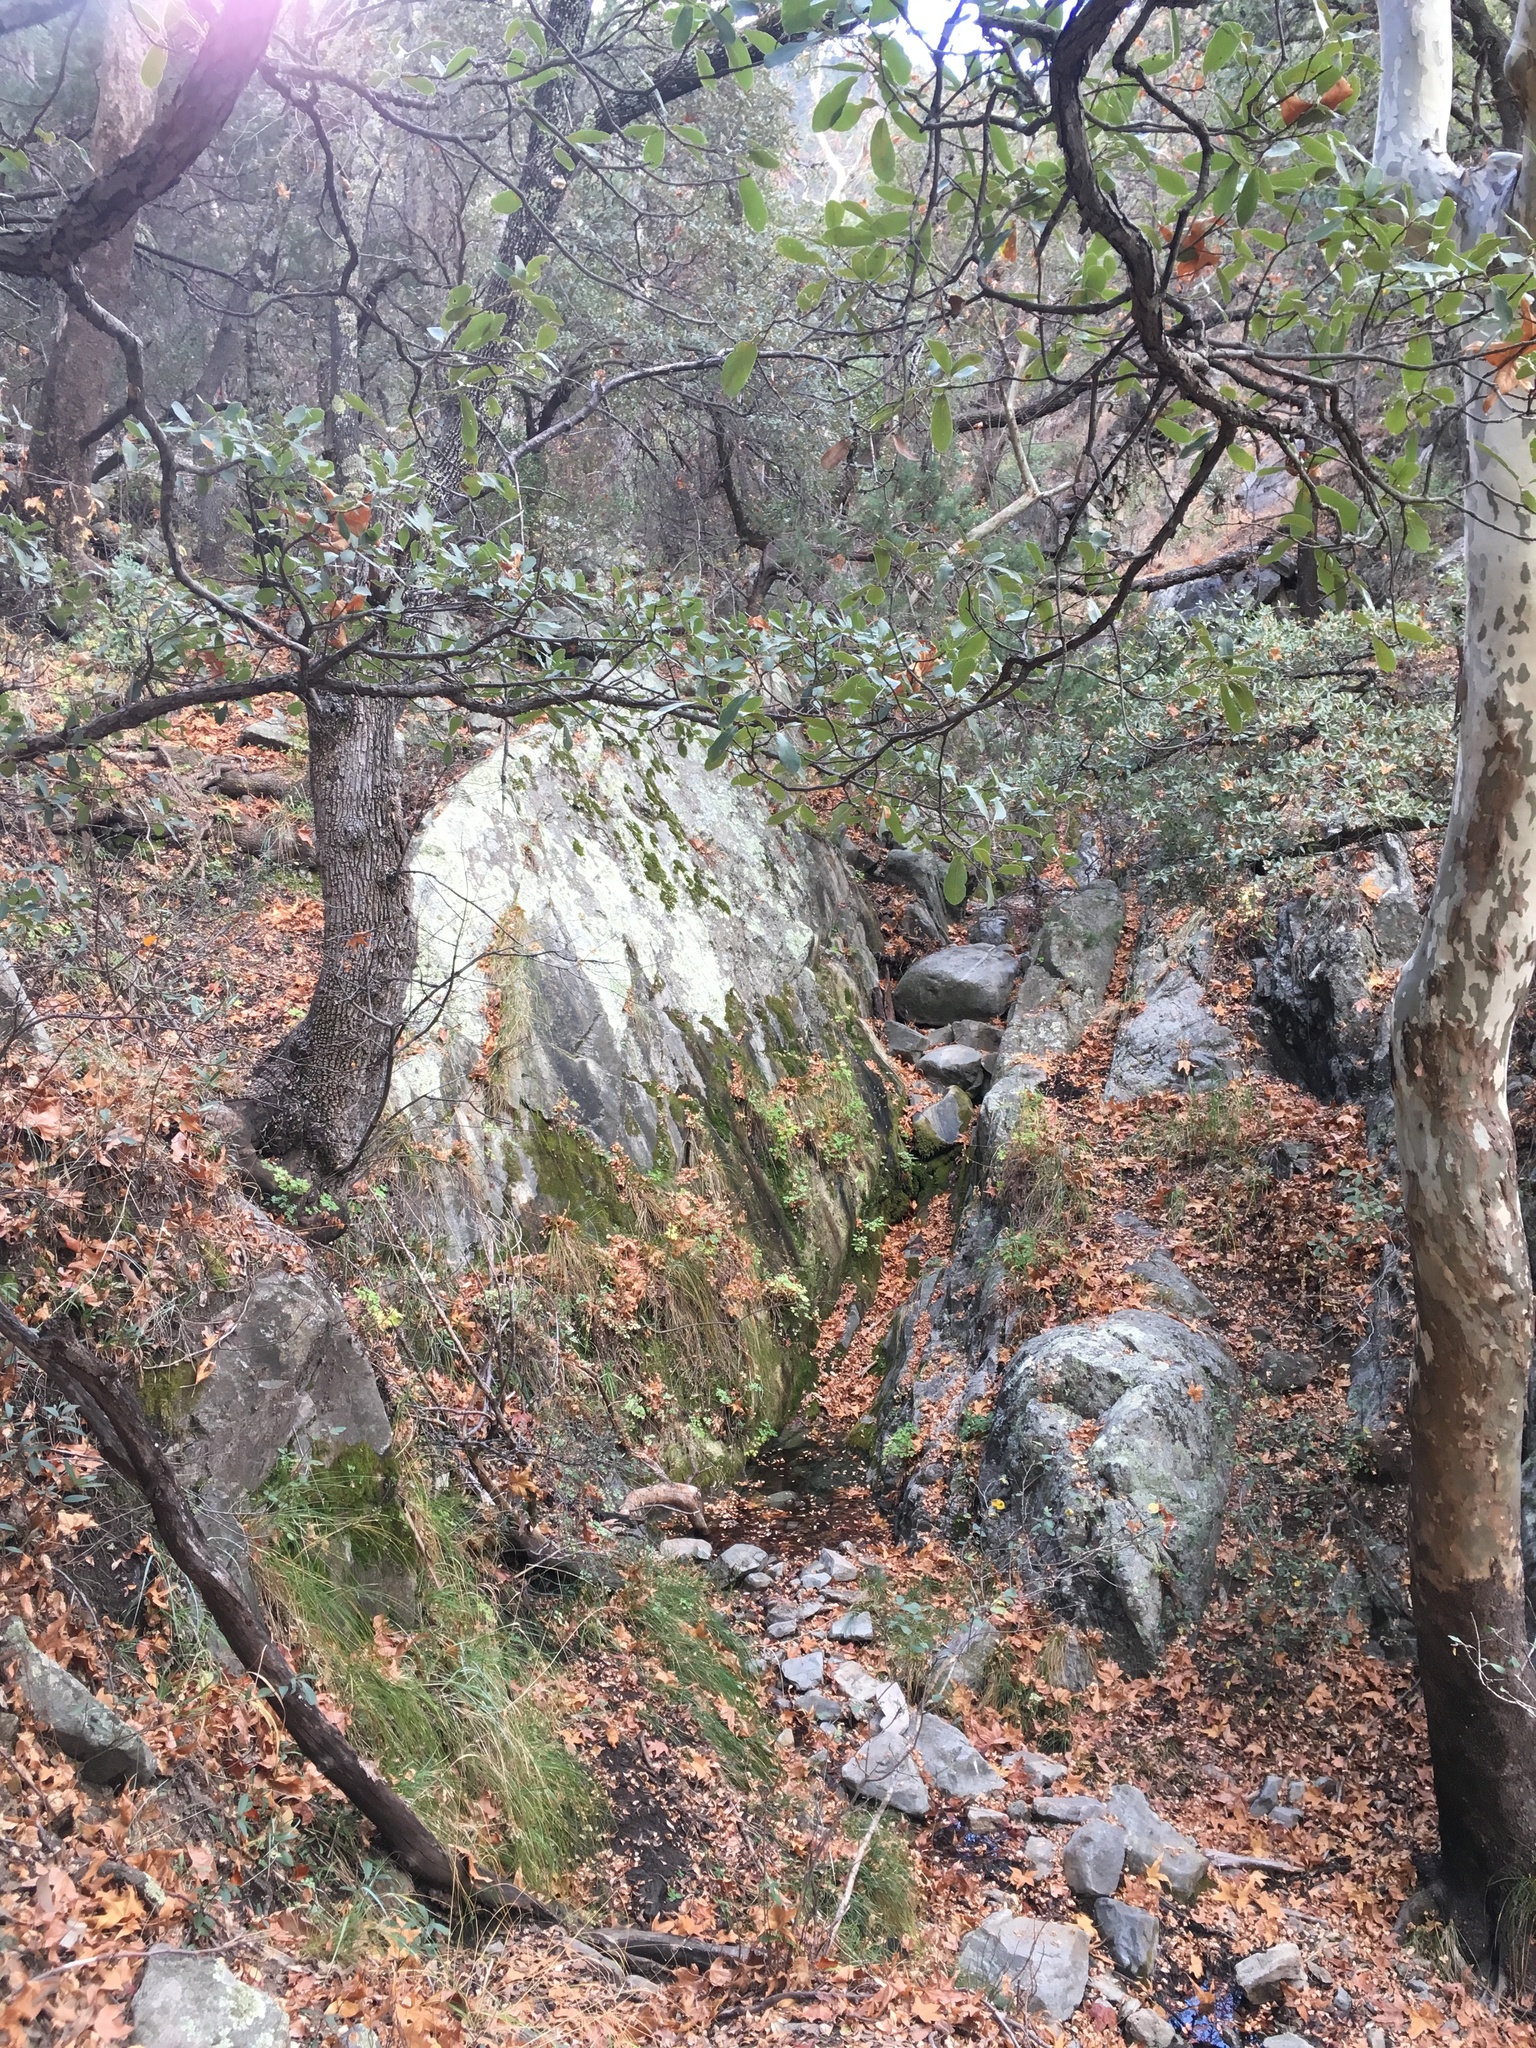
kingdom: Plantae
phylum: Tracheophyta
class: Magnoliopsida
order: Proteales
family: Platanaceae
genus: Platanus
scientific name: Platanus wrightii
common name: Arizona sycamore
